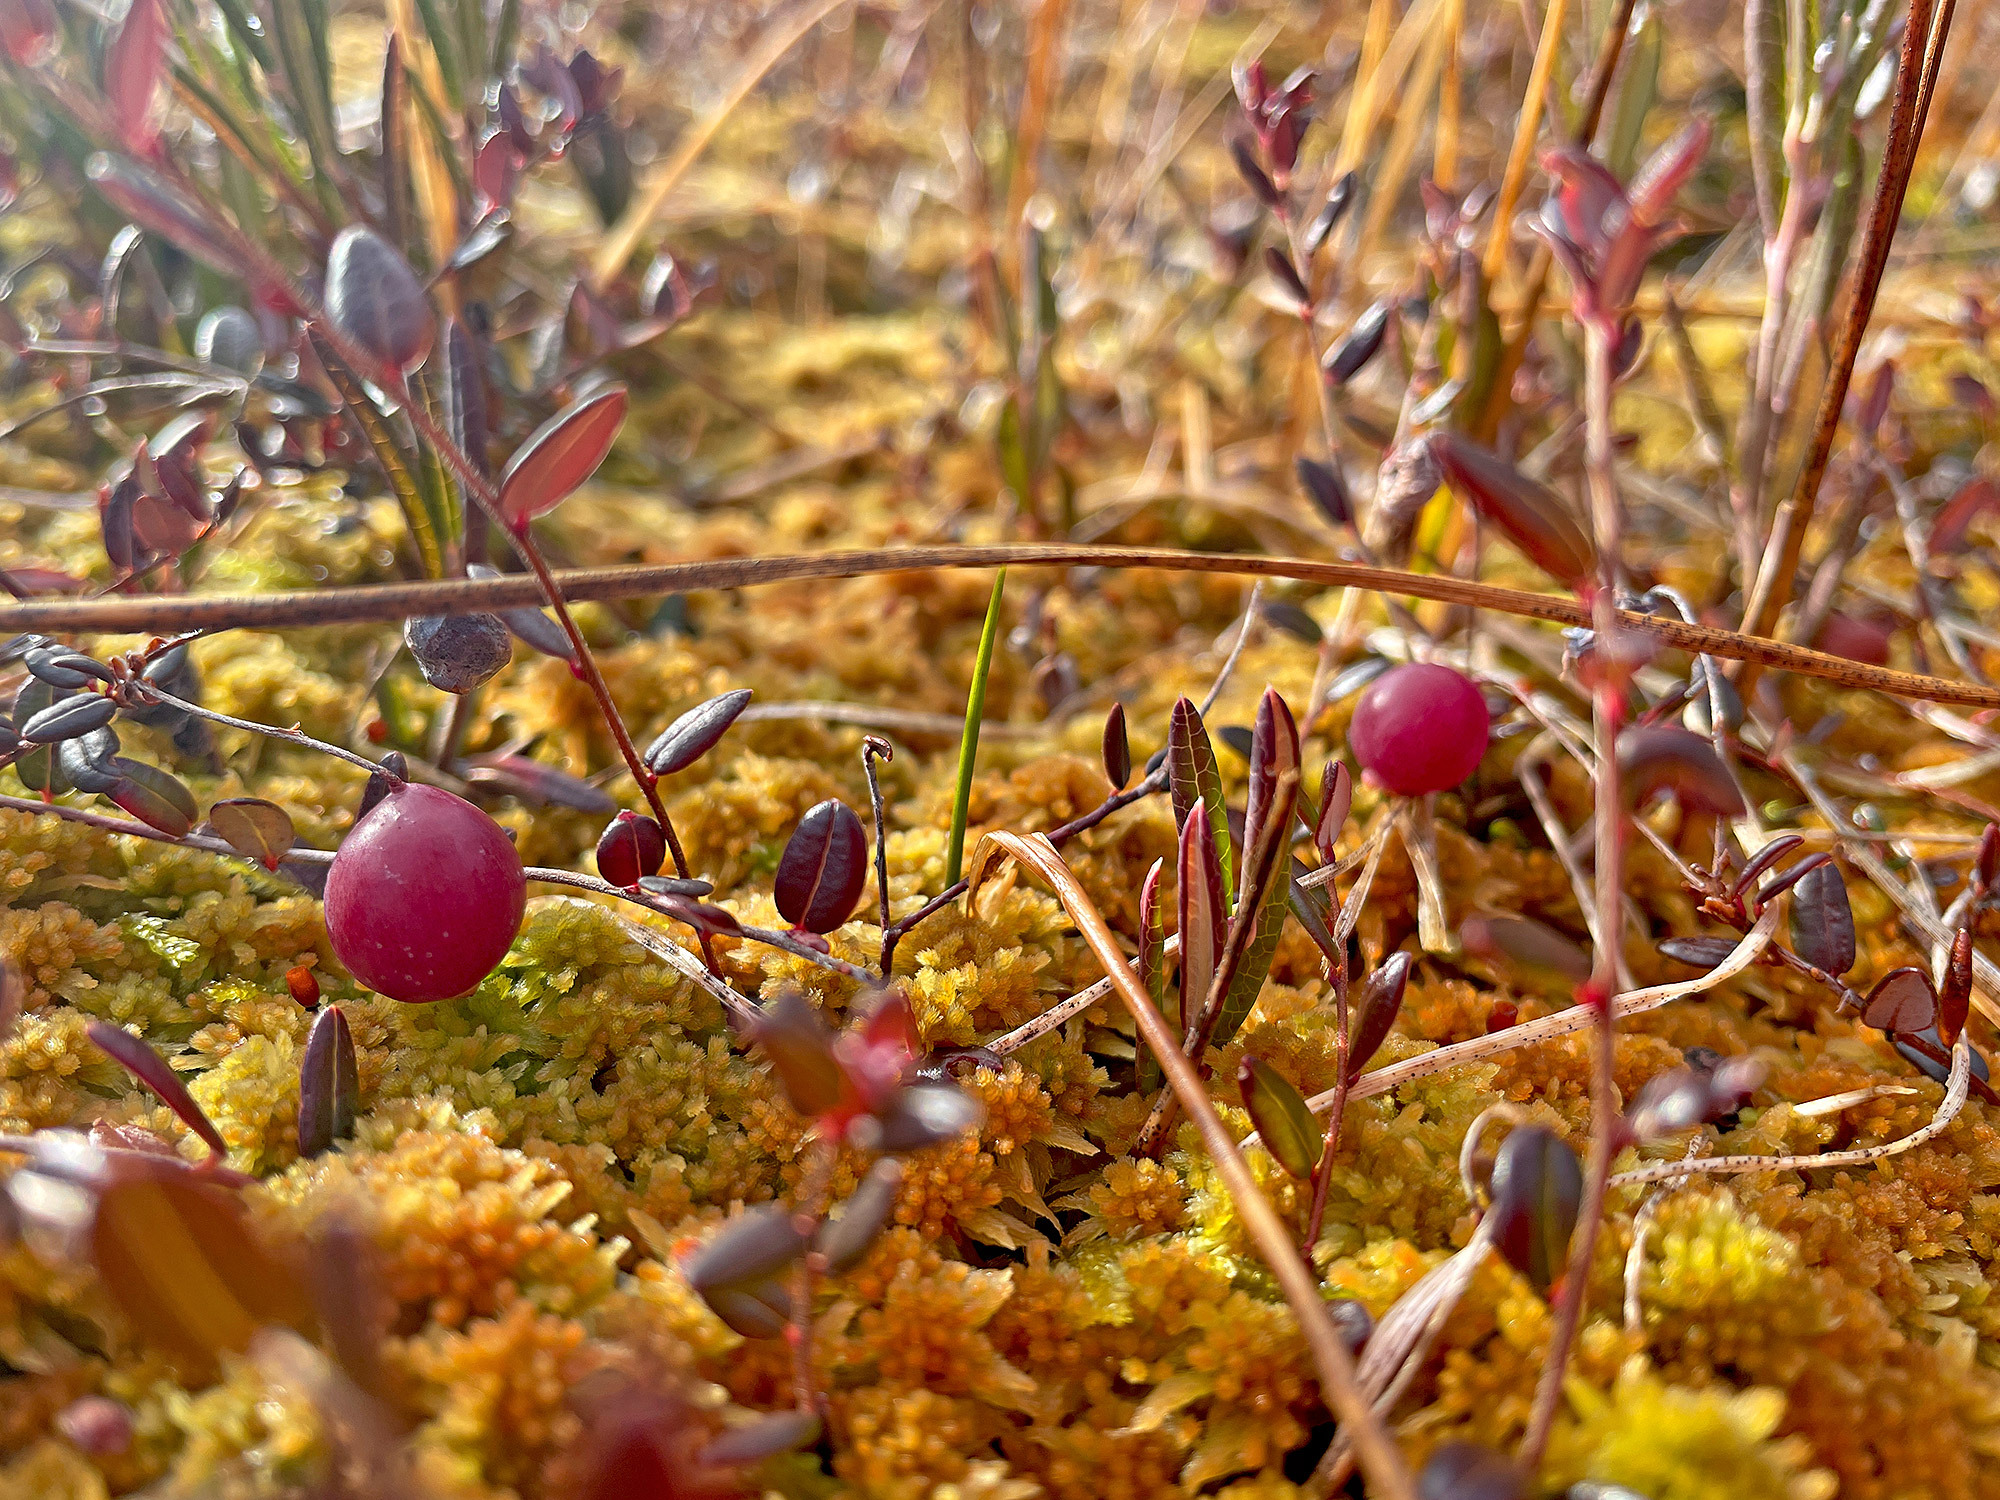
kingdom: Plantae
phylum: Tracheophyta
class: Magnoliopsida
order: Ericales
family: Ericaceae
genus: Vaccinium
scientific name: Vaccinium oxycoccos
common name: Cranberry
